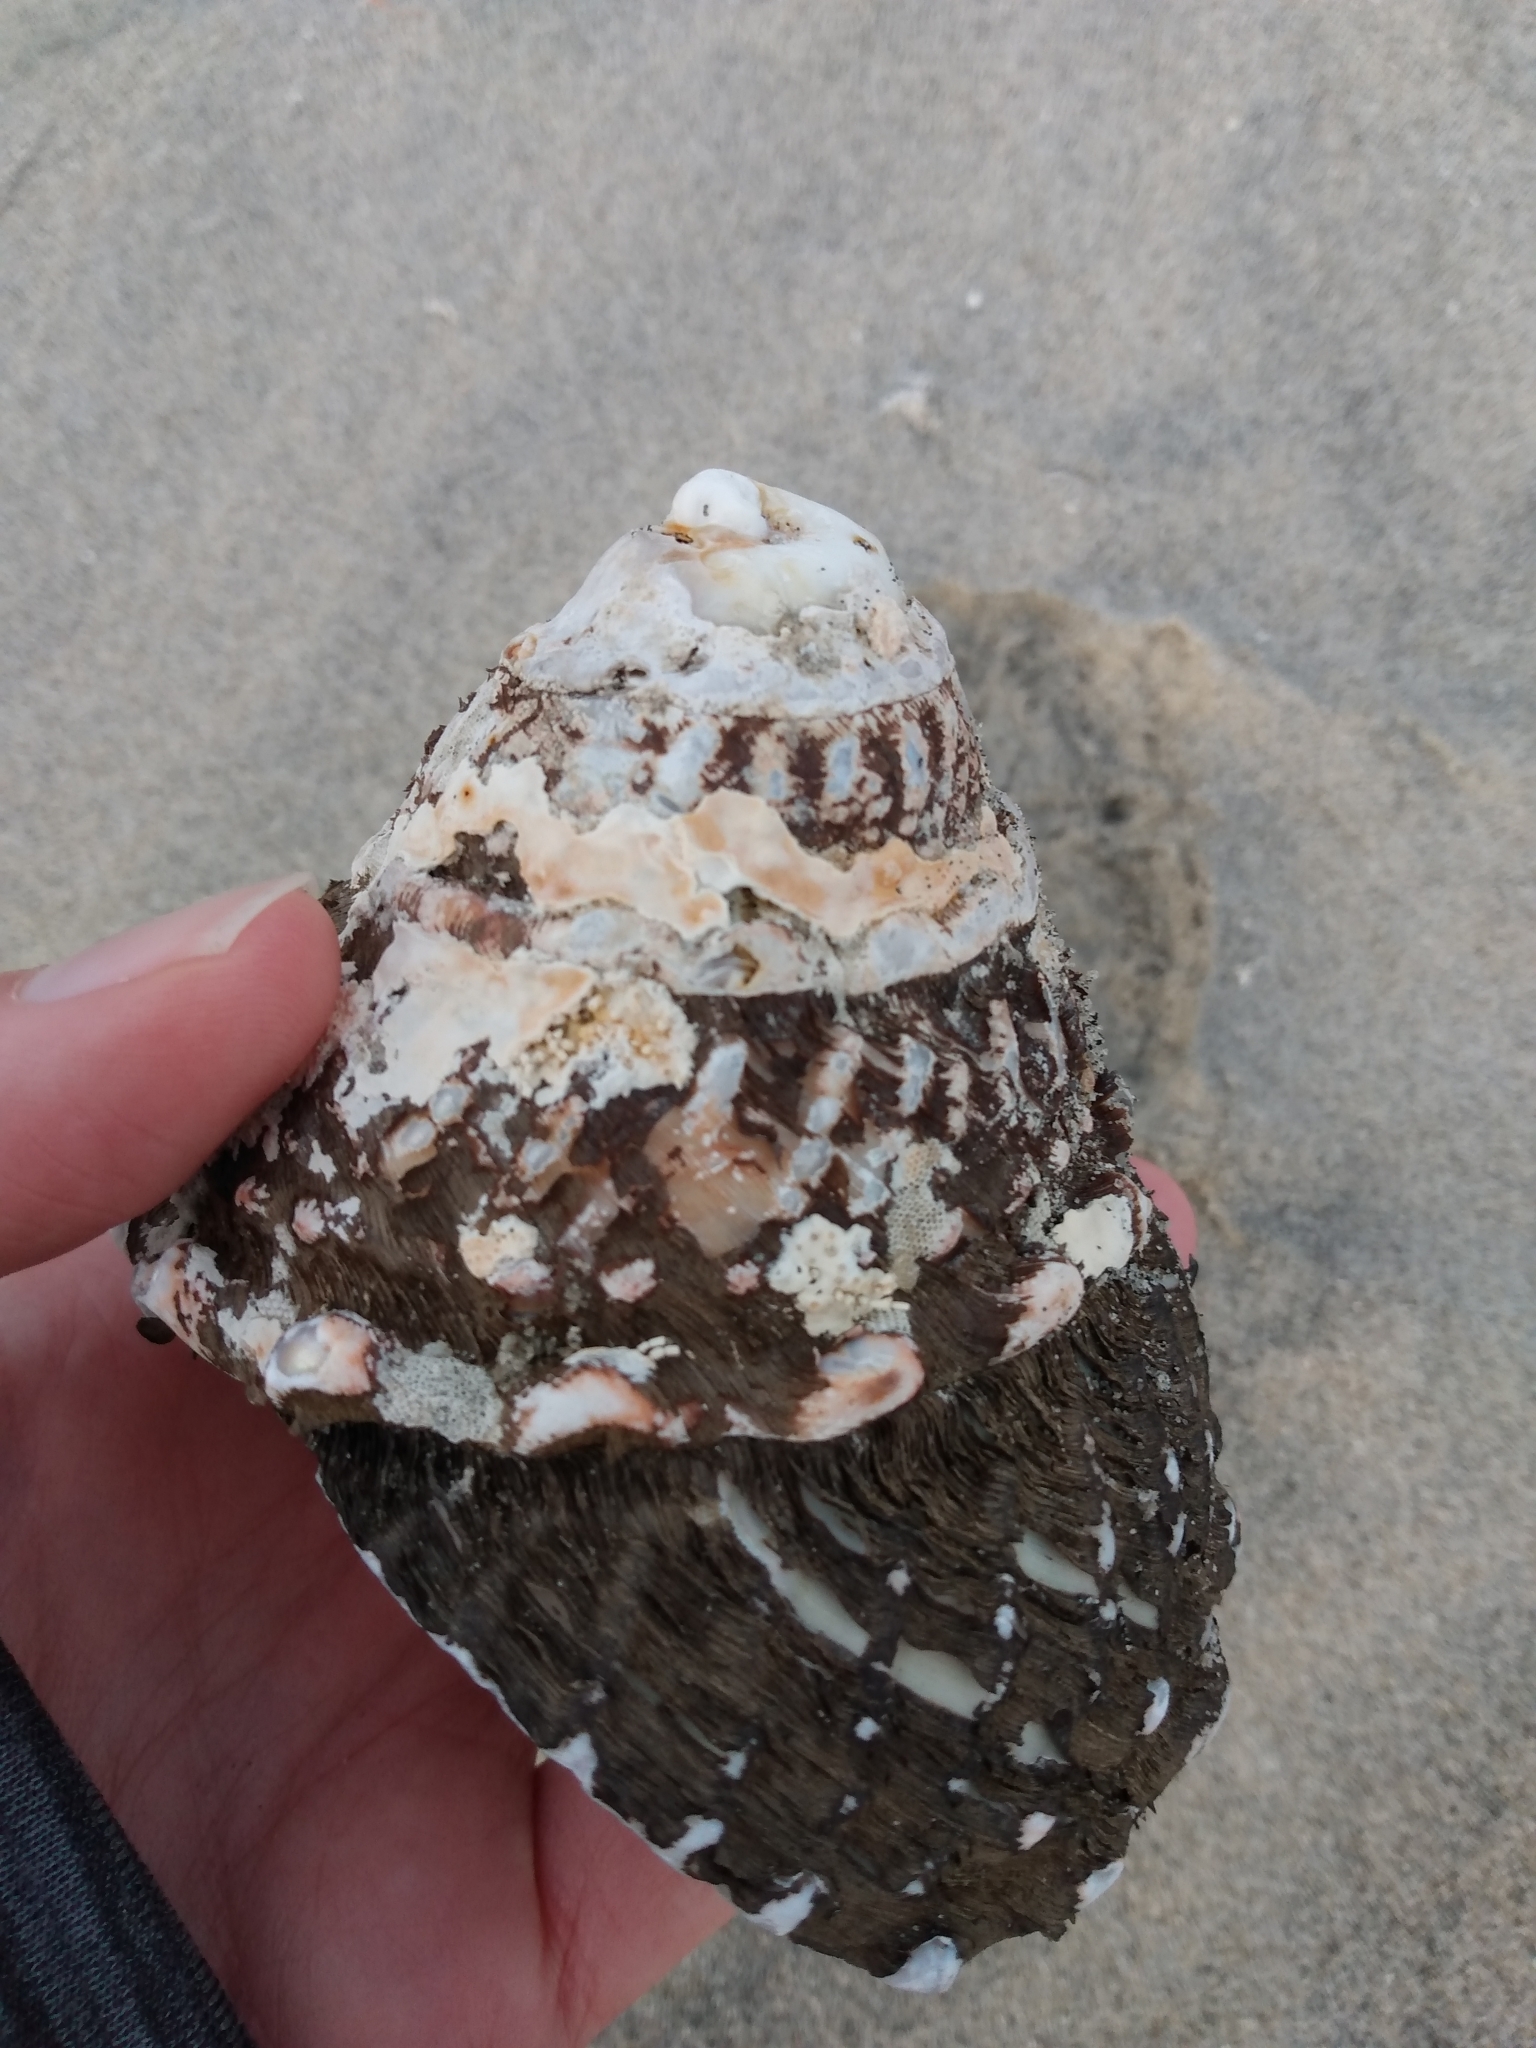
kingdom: Animalia
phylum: Mollusca
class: Gastropoda
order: Trochida
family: Turbinidae
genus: Megastraea
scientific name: Megastraea undosa
